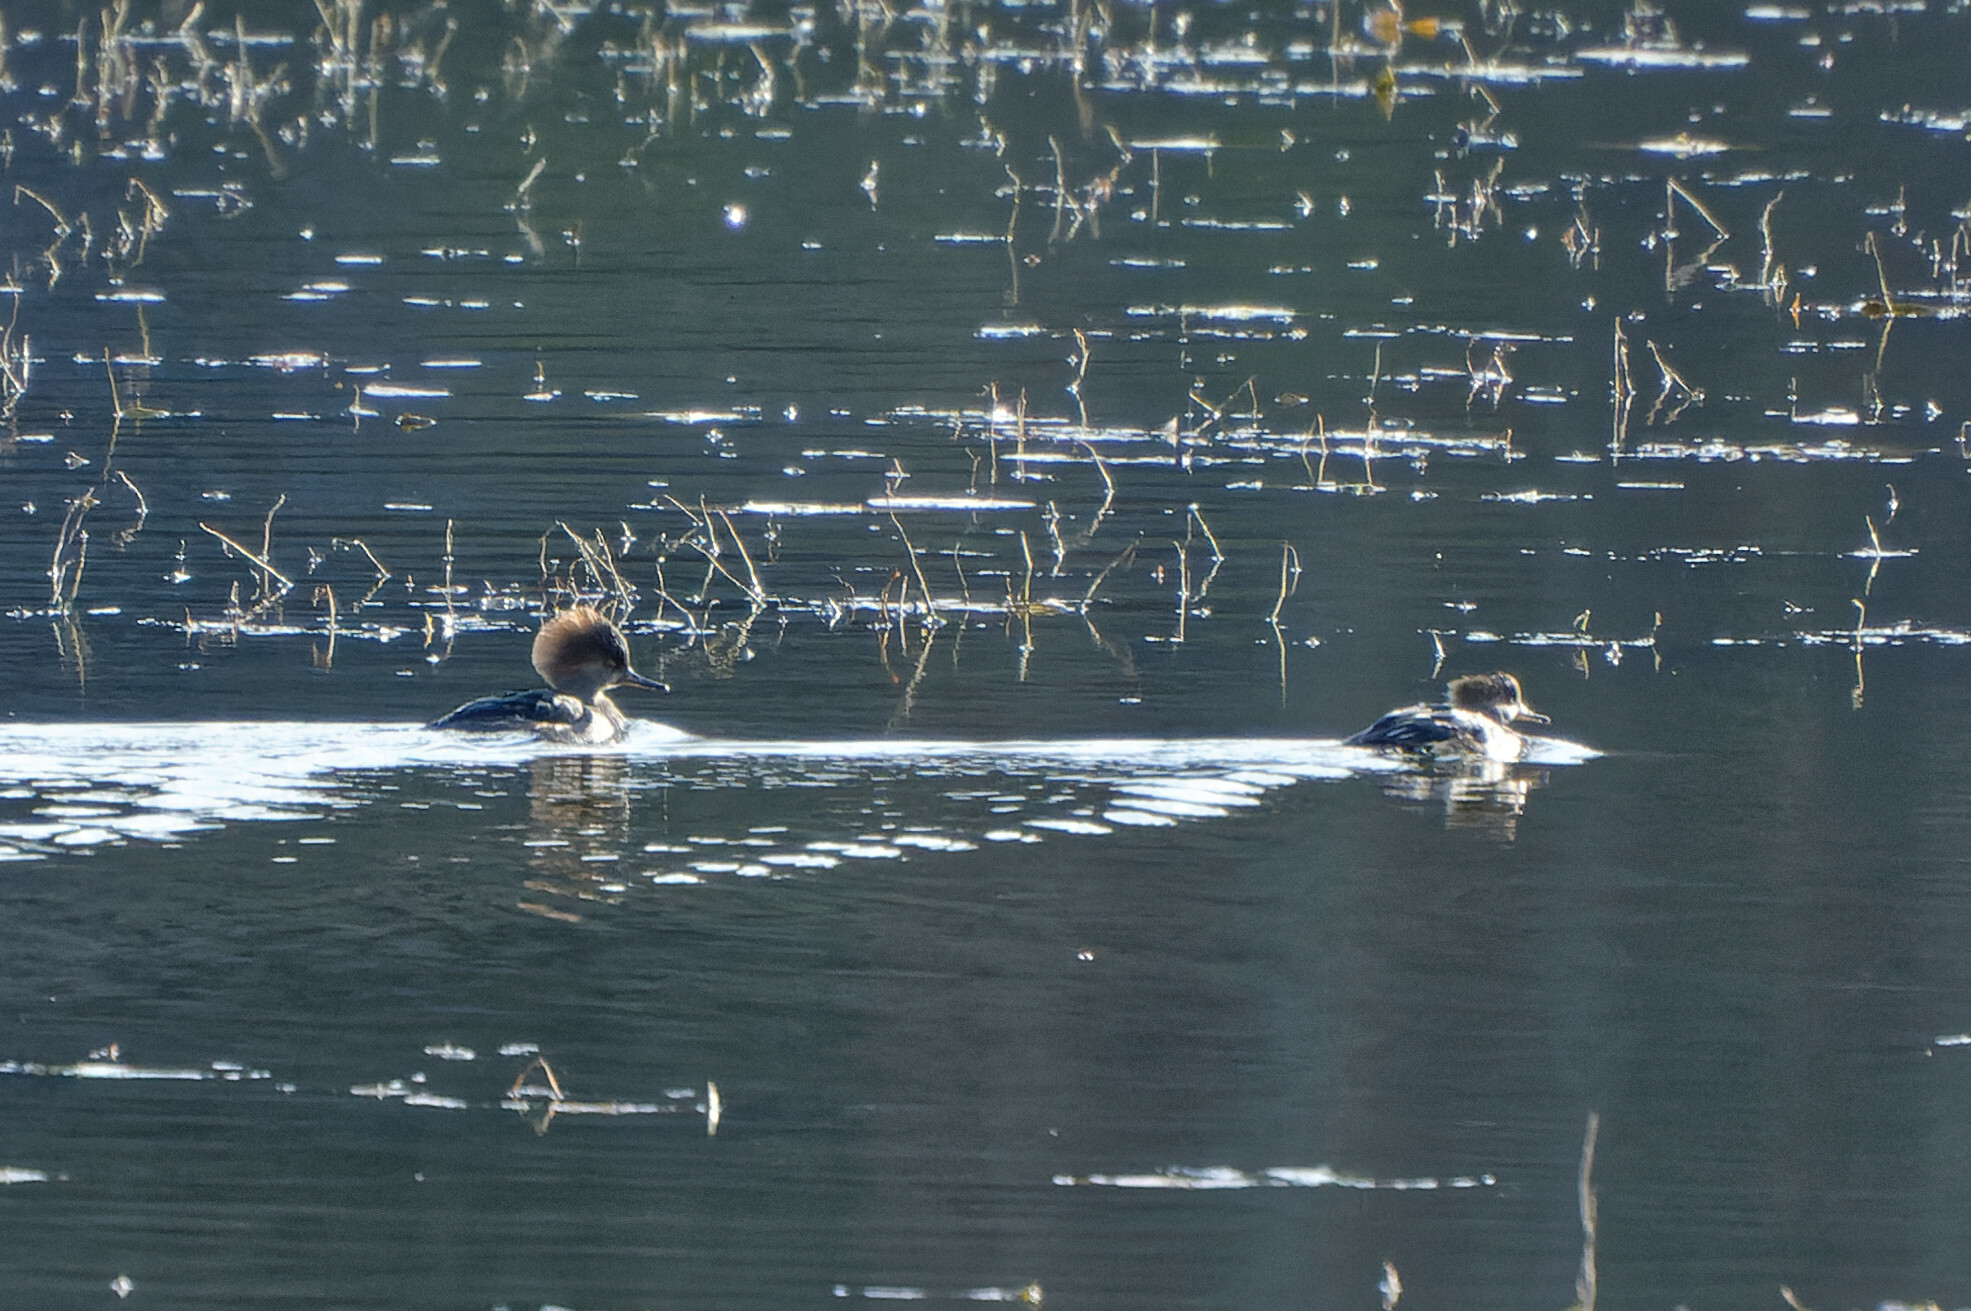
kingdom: Animalia
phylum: Chordata
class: Aves
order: Anseriformes
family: Anatidae
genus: Lophodytes
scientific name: Lophodytes cucullatus
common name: Hooded merganser
